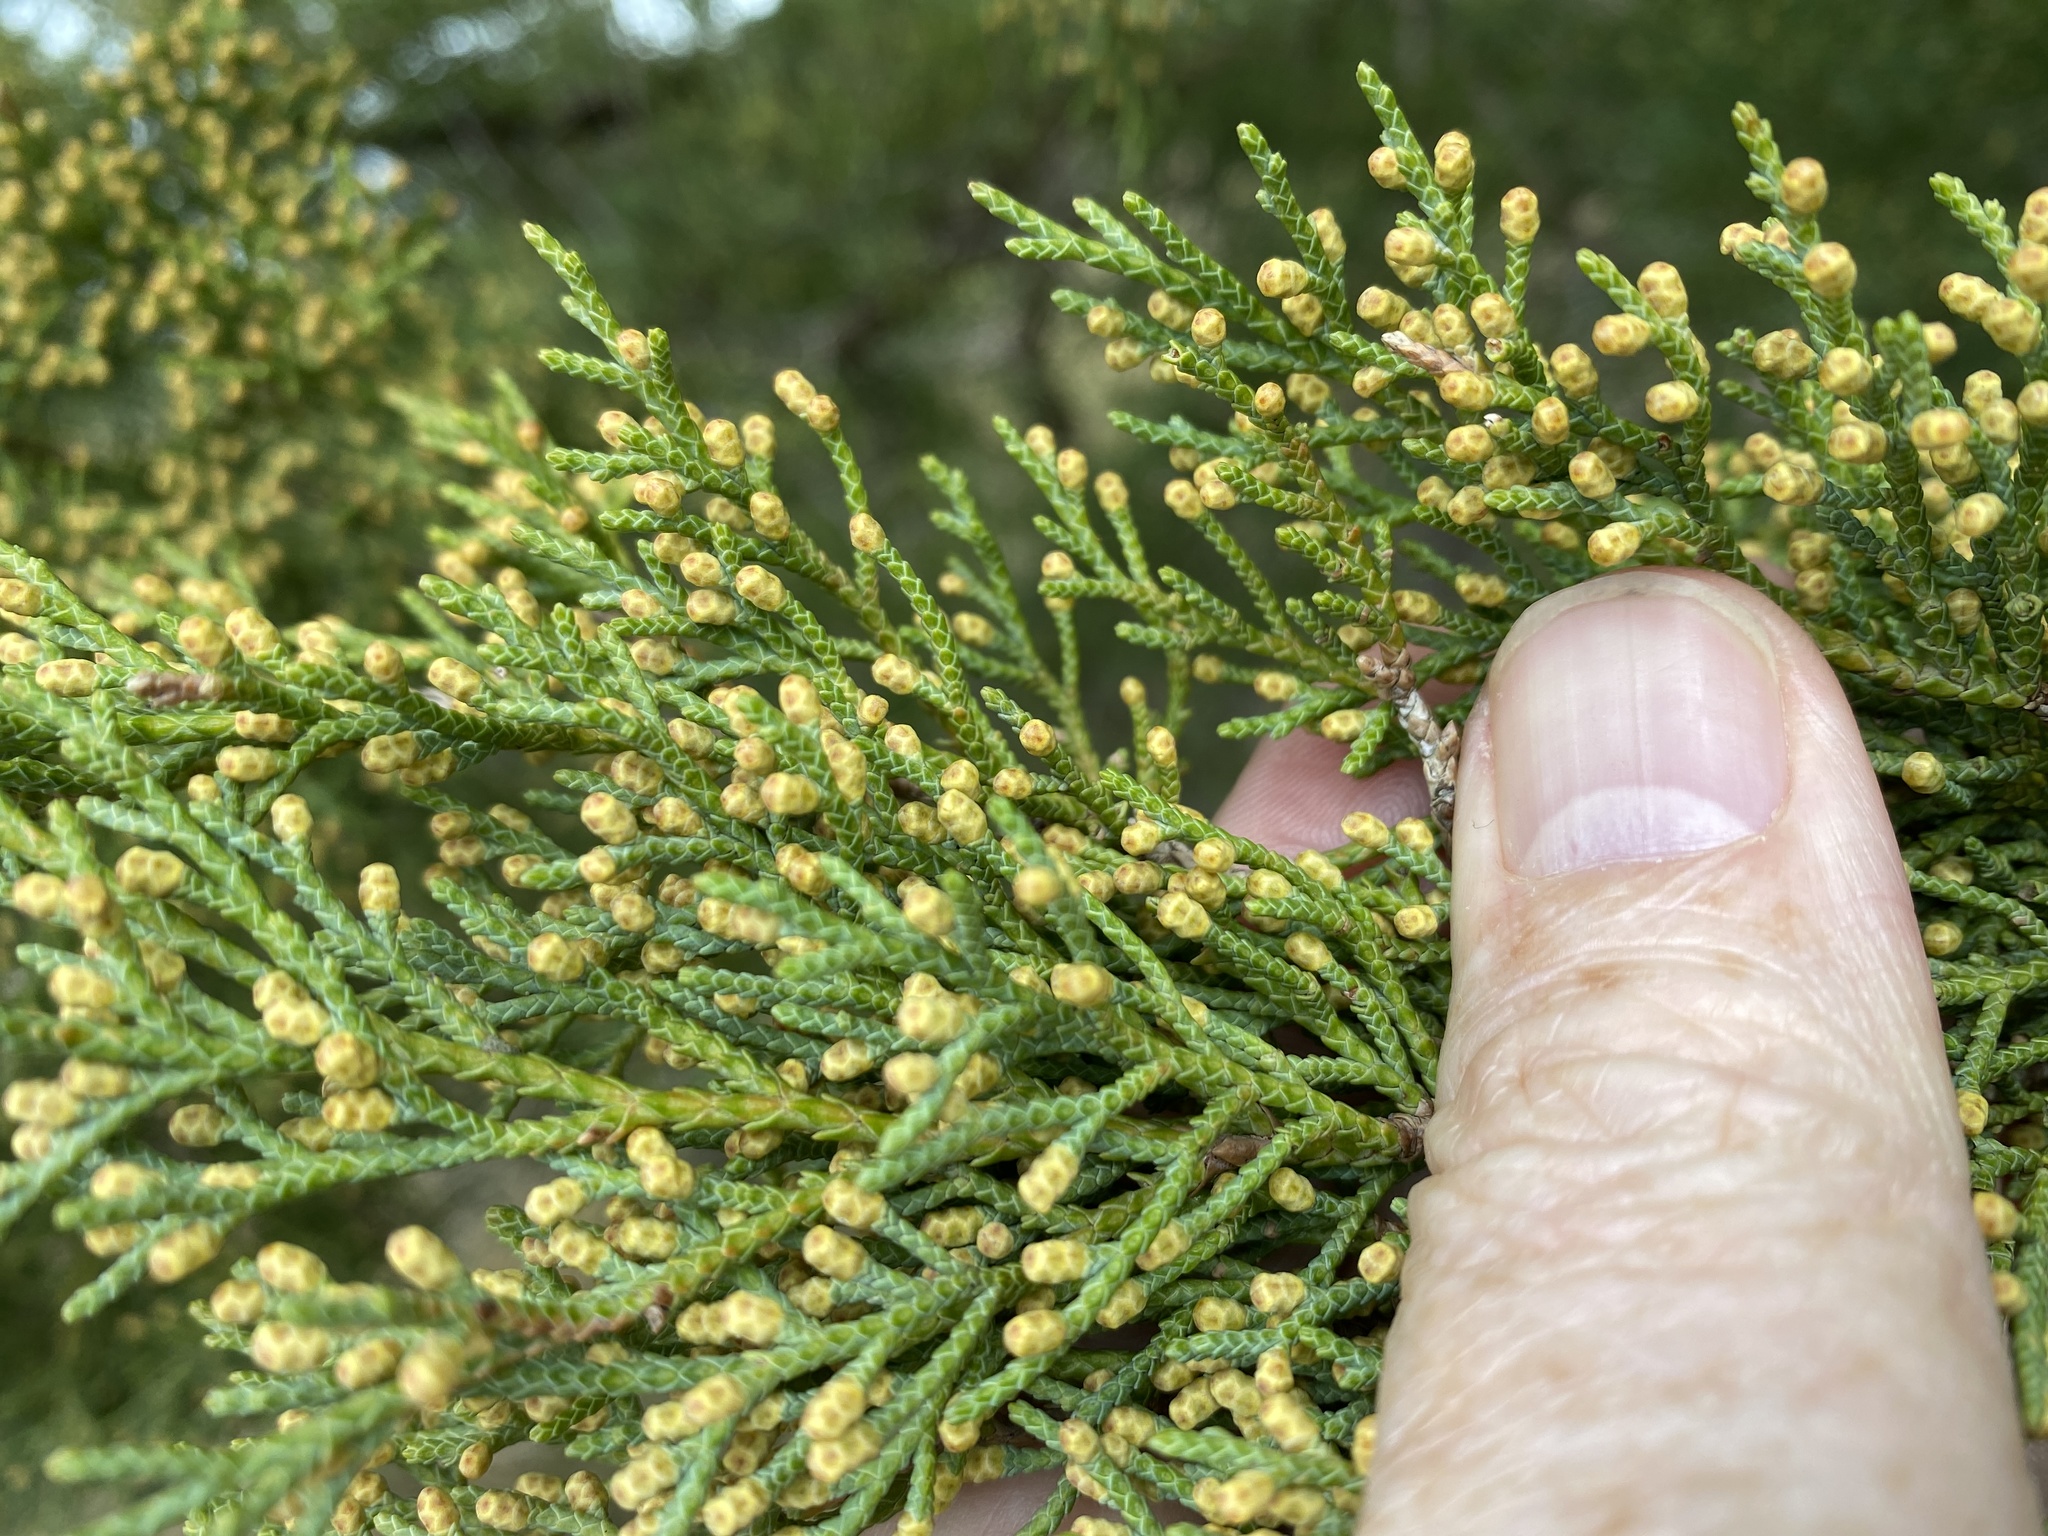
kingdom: Plantae
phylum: Tracheophyta
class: Pinopsida
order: Pinales
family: Cupressaceae
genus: Juniperus
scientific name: Juniperus virginiana
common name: Red juniper
